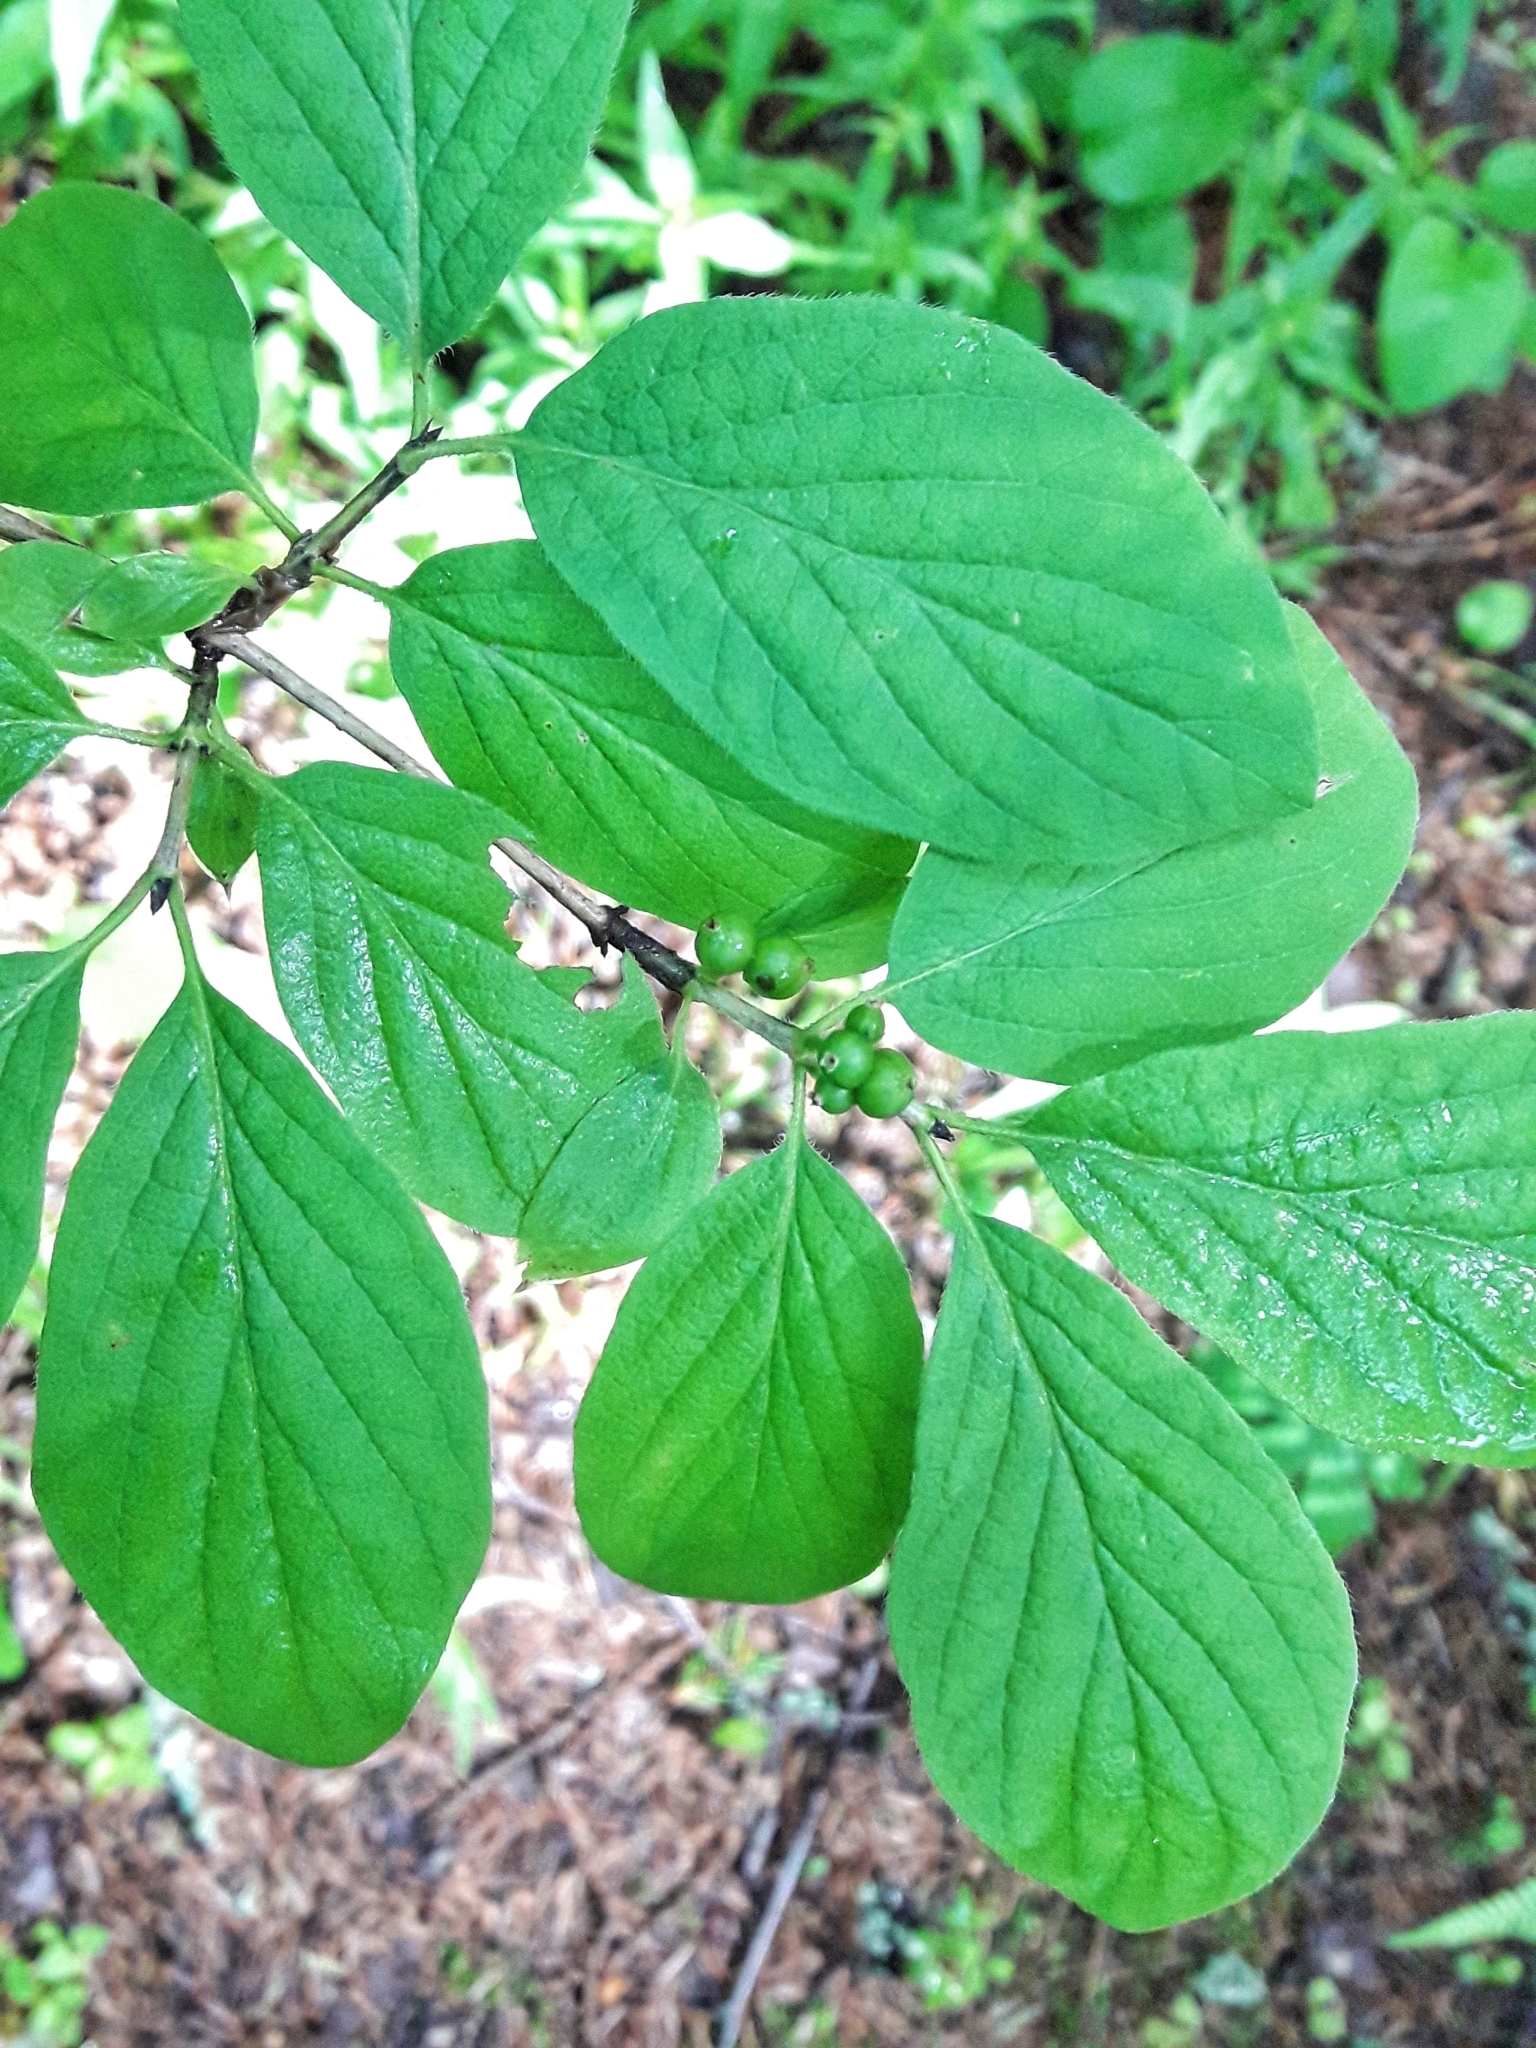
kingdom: Plantae
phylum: Tracheophyta
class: Magnoliopsida
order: Dipsacales
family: Caprifoliaceae
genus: Lonicera
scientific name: Lonicera xylosteum
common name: Fly honeysuckle
